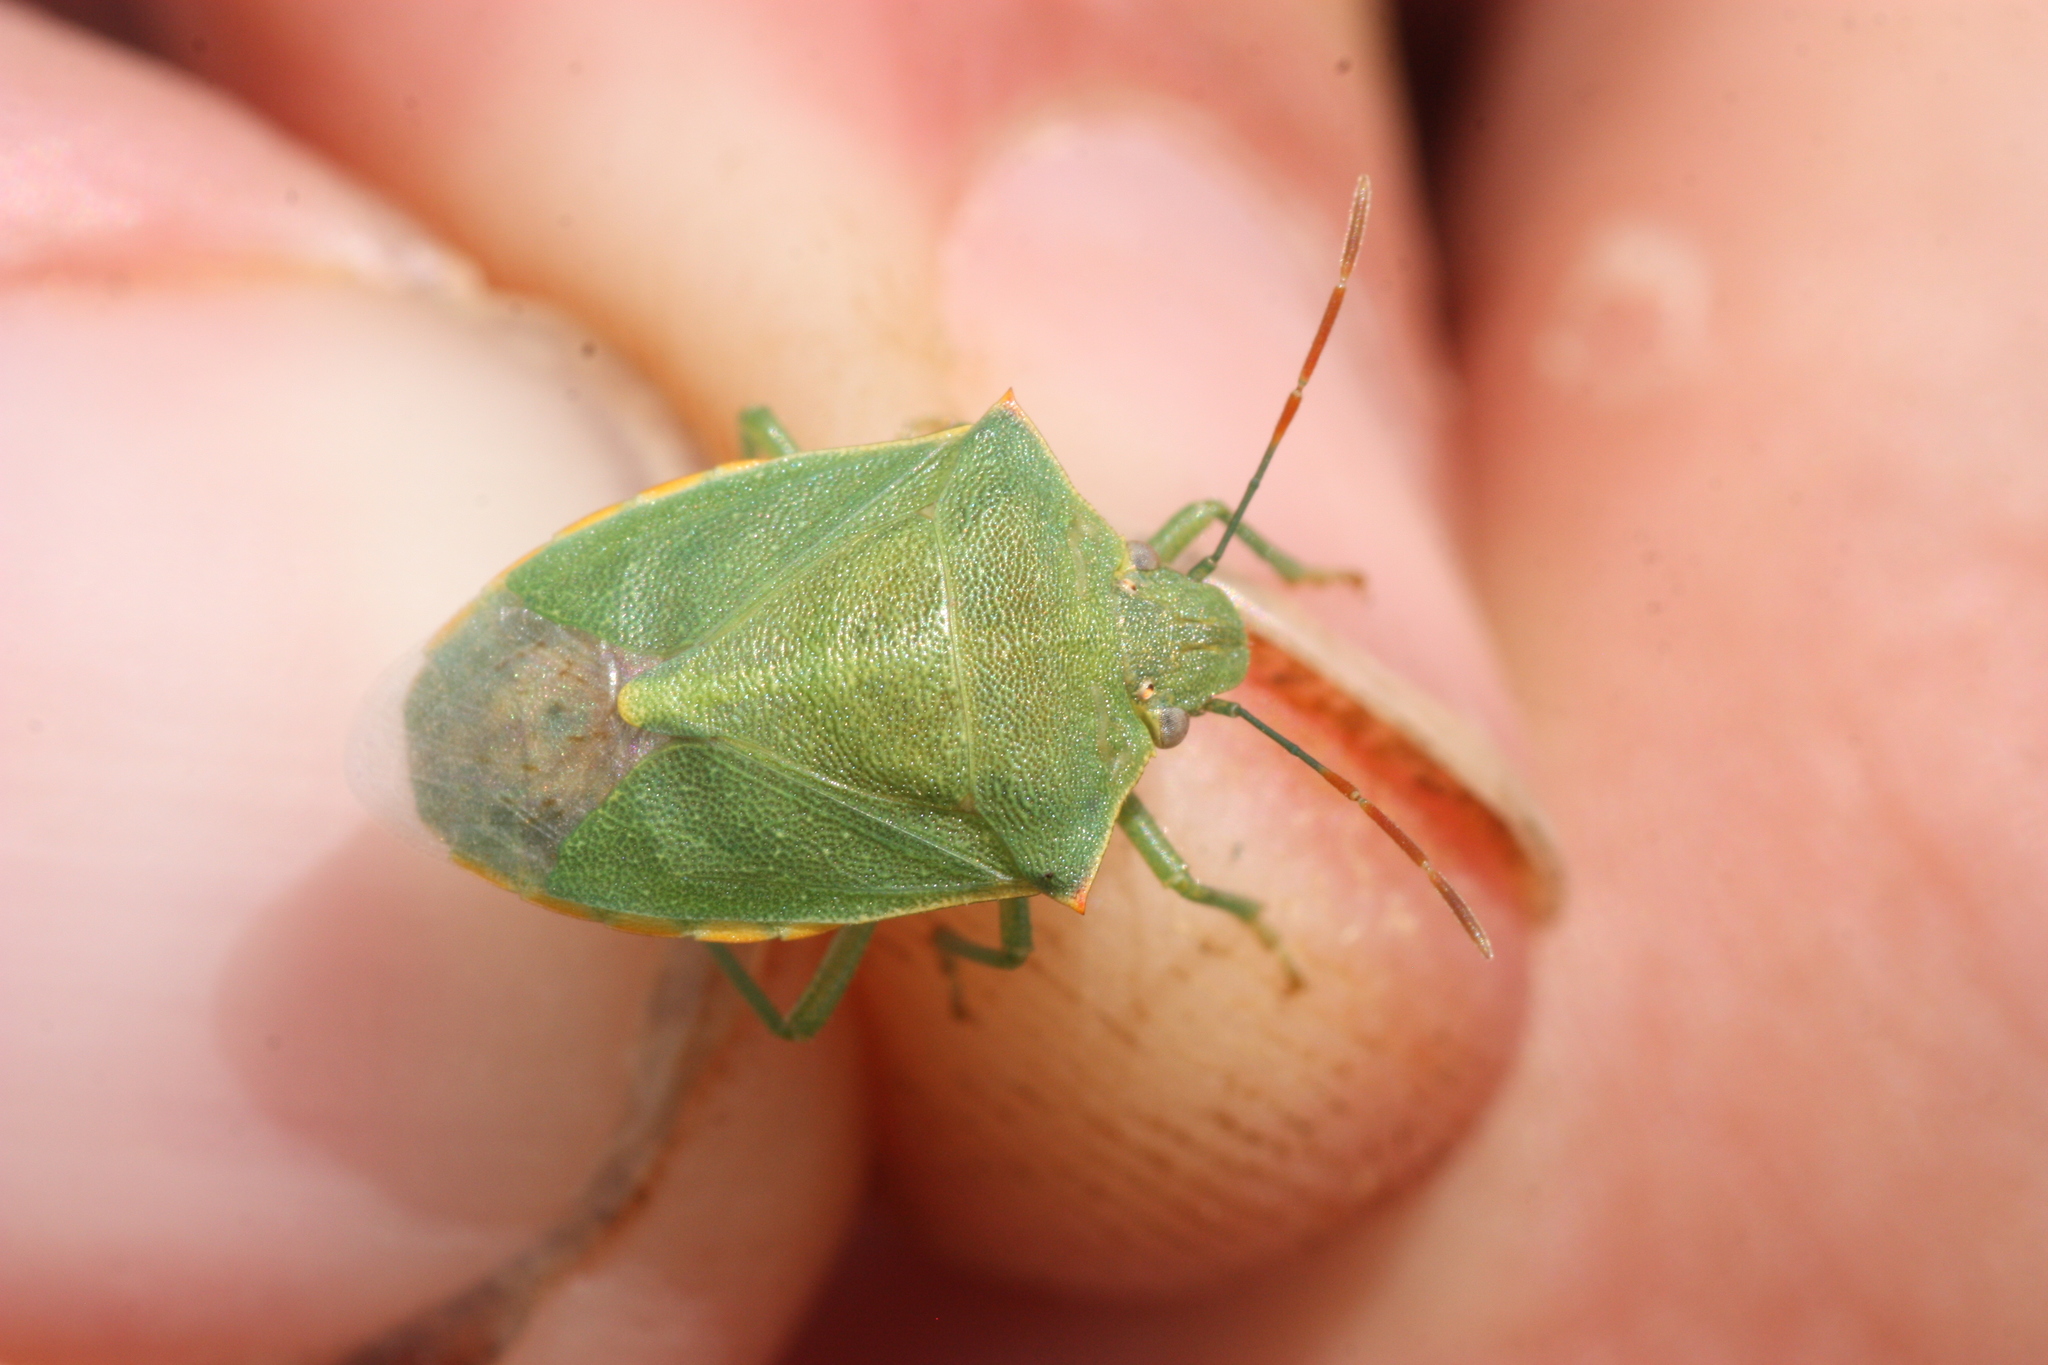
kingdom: Animalia
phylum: Arthropoda
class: Insecta
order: Hemiptera
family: Pentatomidae
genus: Thyanta
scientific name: Thyanta accerra
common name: Stink bug
